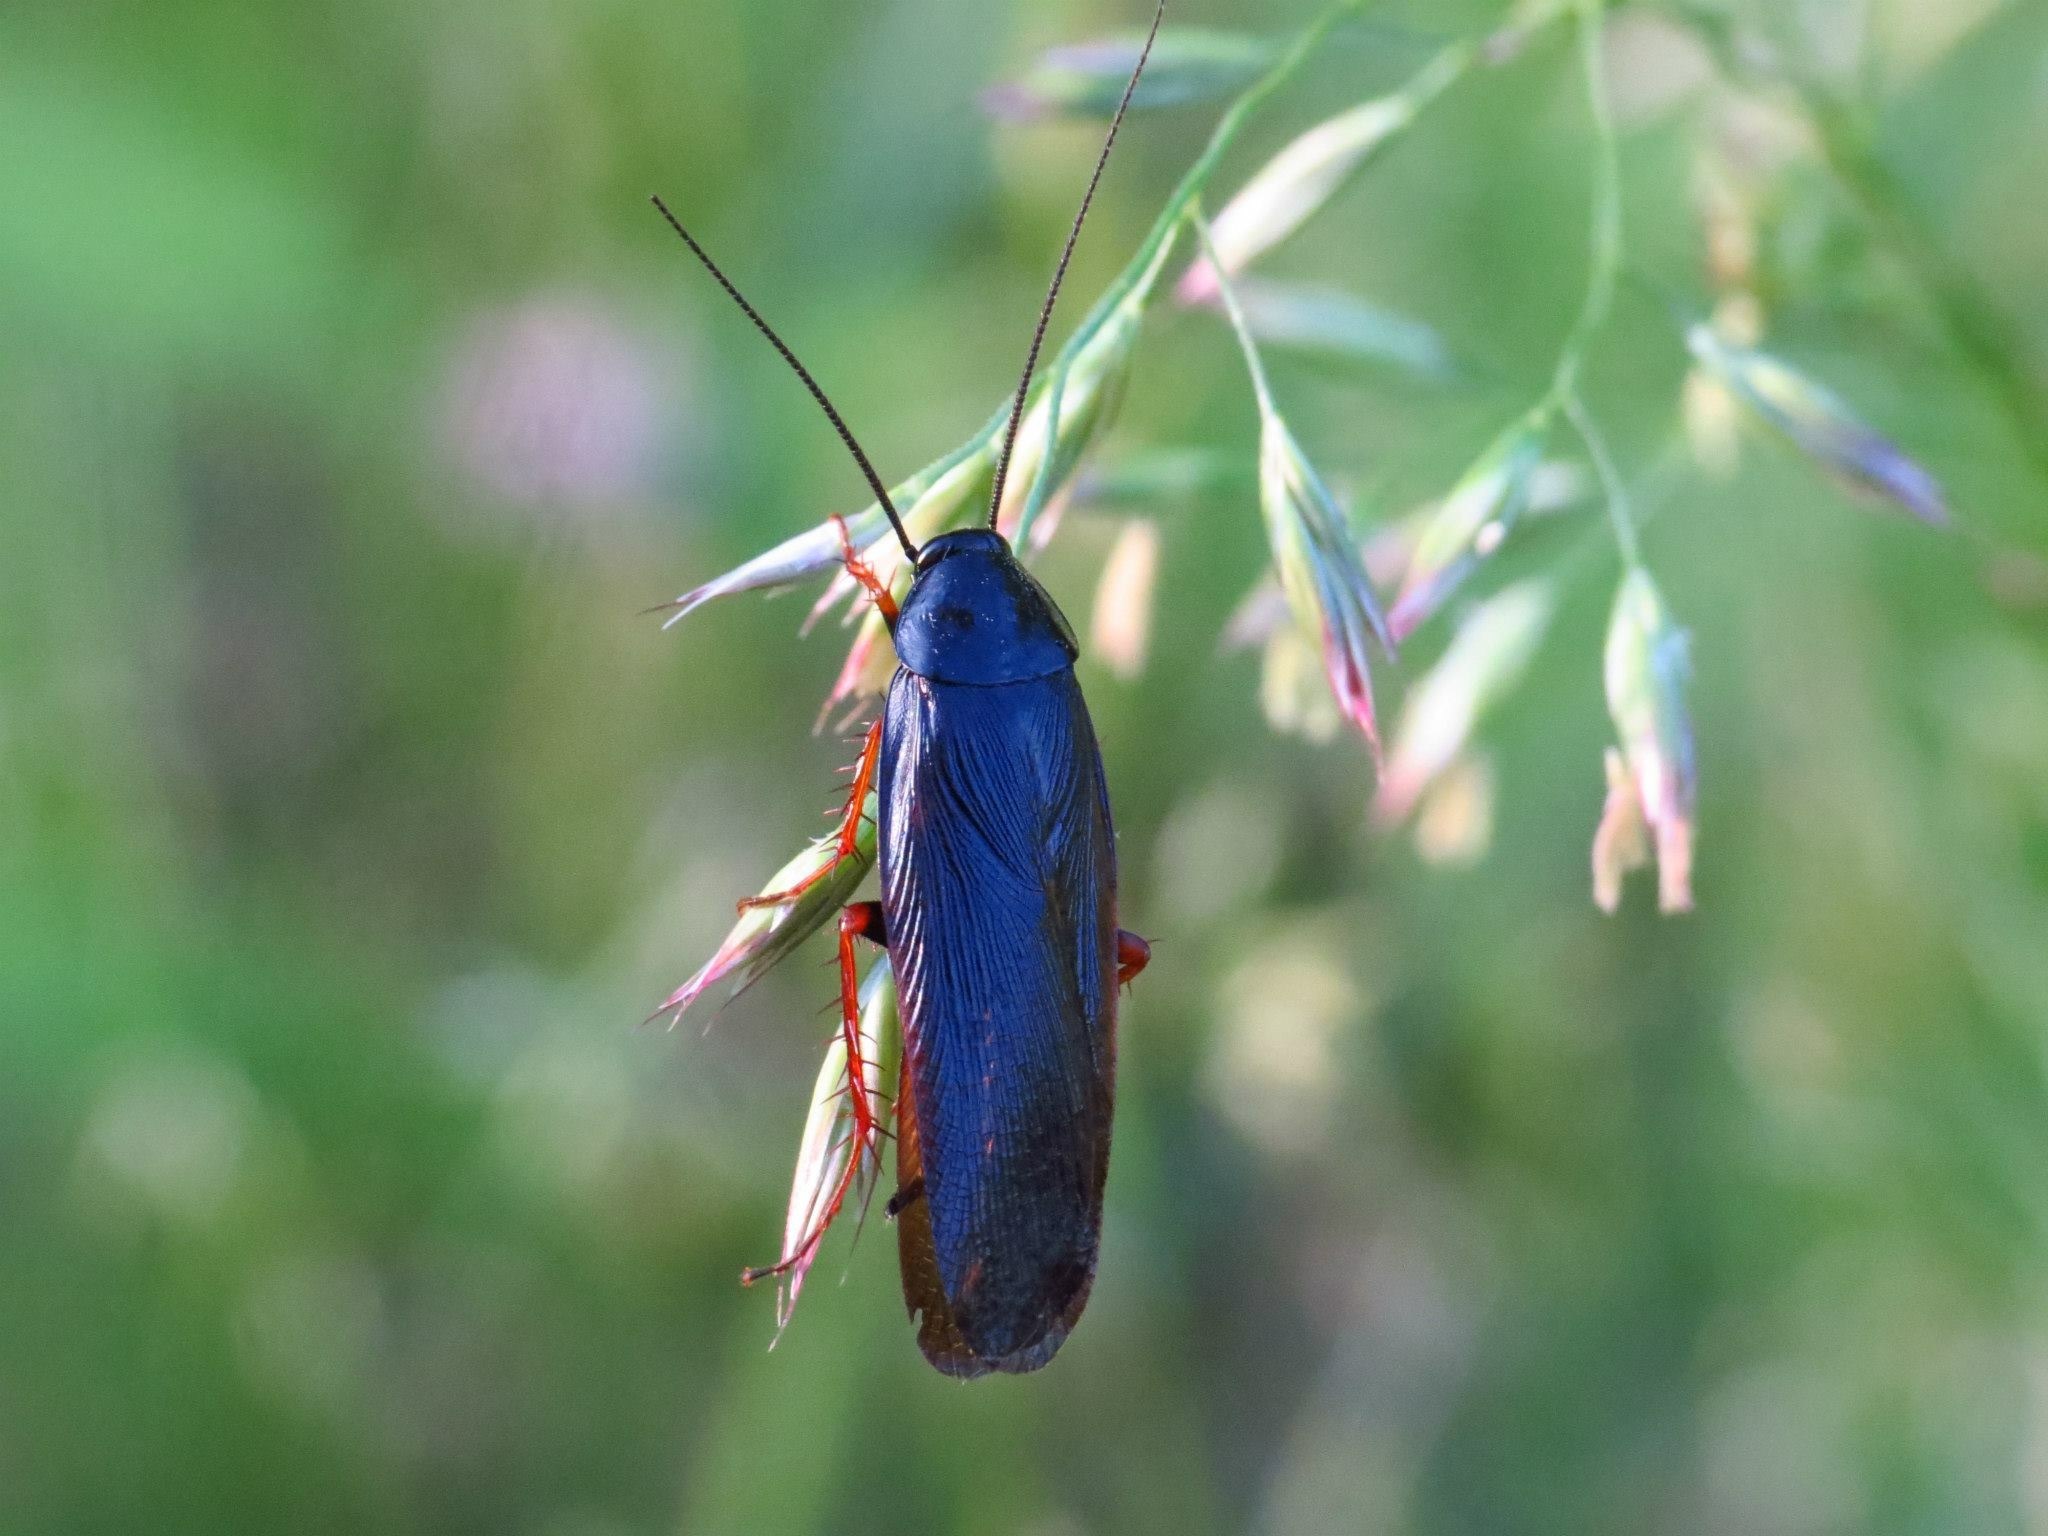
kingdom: Animalia
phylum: Arthropoda
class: Insecta
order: Blattodea
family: Ectobiidae
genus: Ischnoptera
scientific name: Ischnoptera deropeltiformis
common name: Dark wood cockroach
